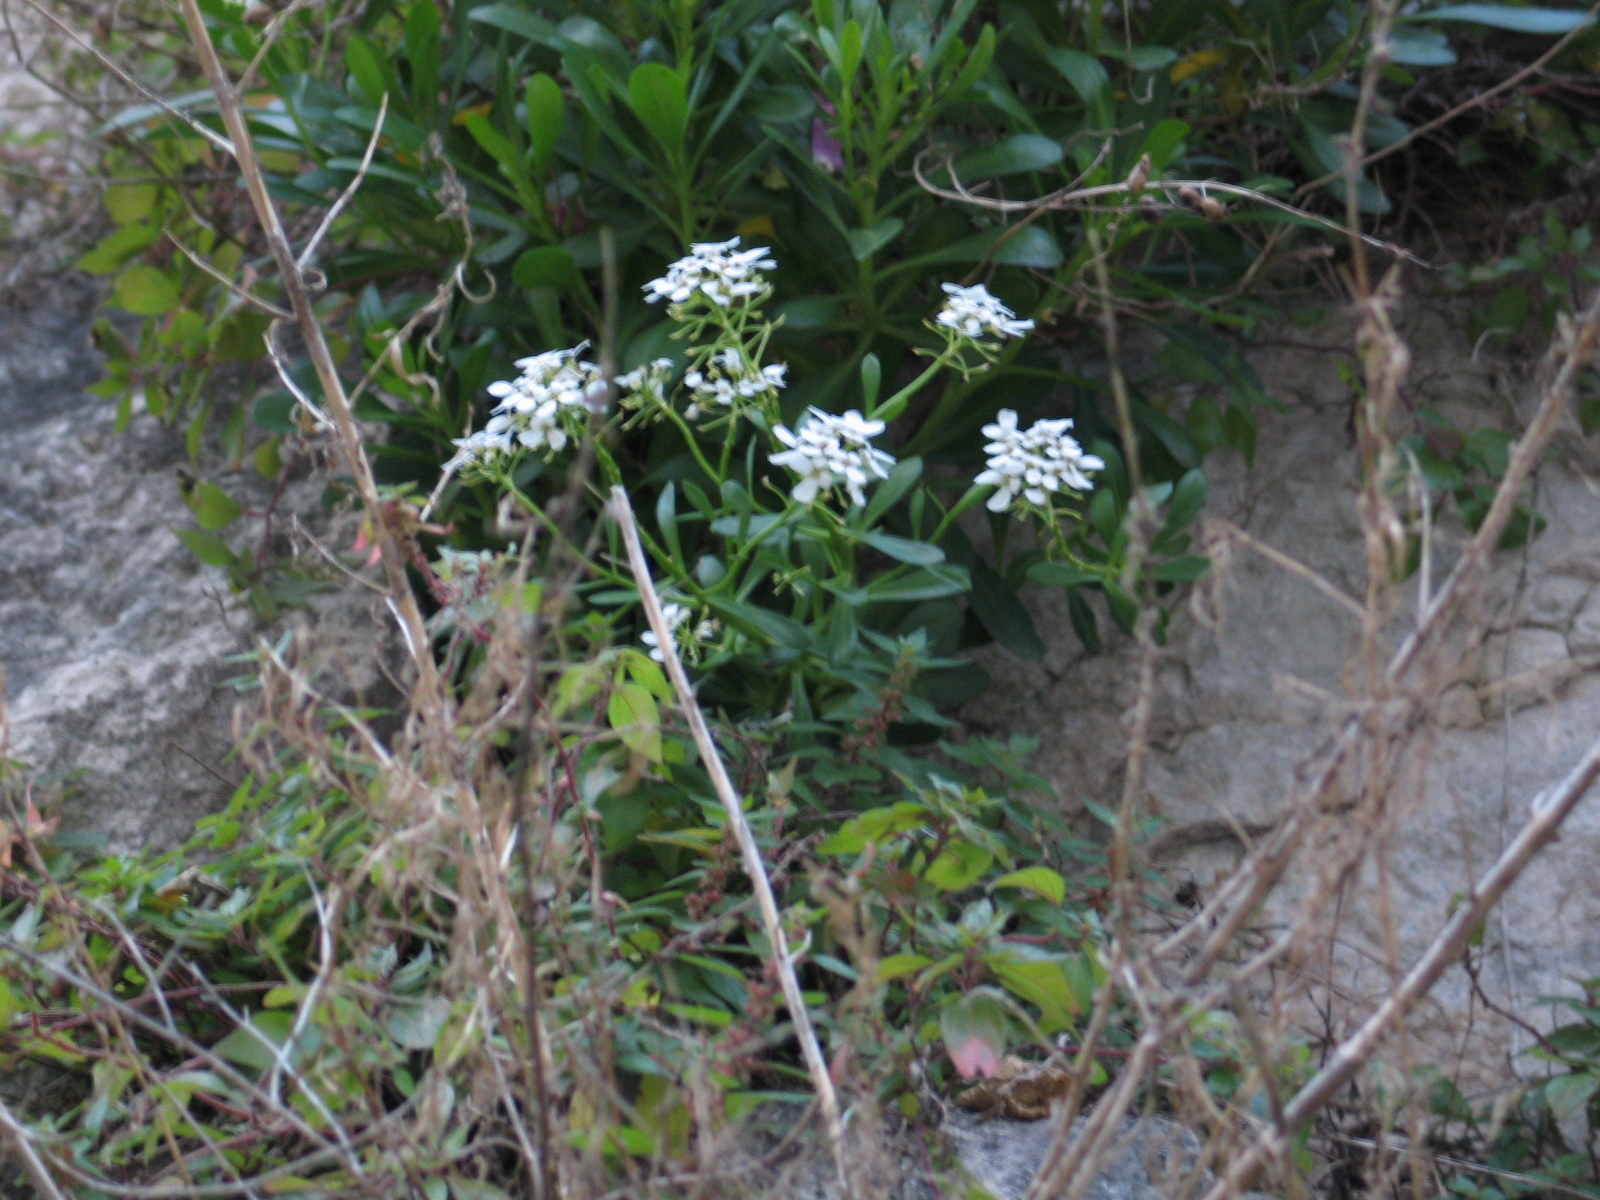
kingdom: Plantae
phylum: Tracheophyta
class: Magnoliopsida
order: Brassicales
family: Brassicaceae
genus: Iberis
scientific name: Iberis sempervirens
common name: Evergreen candytuft
